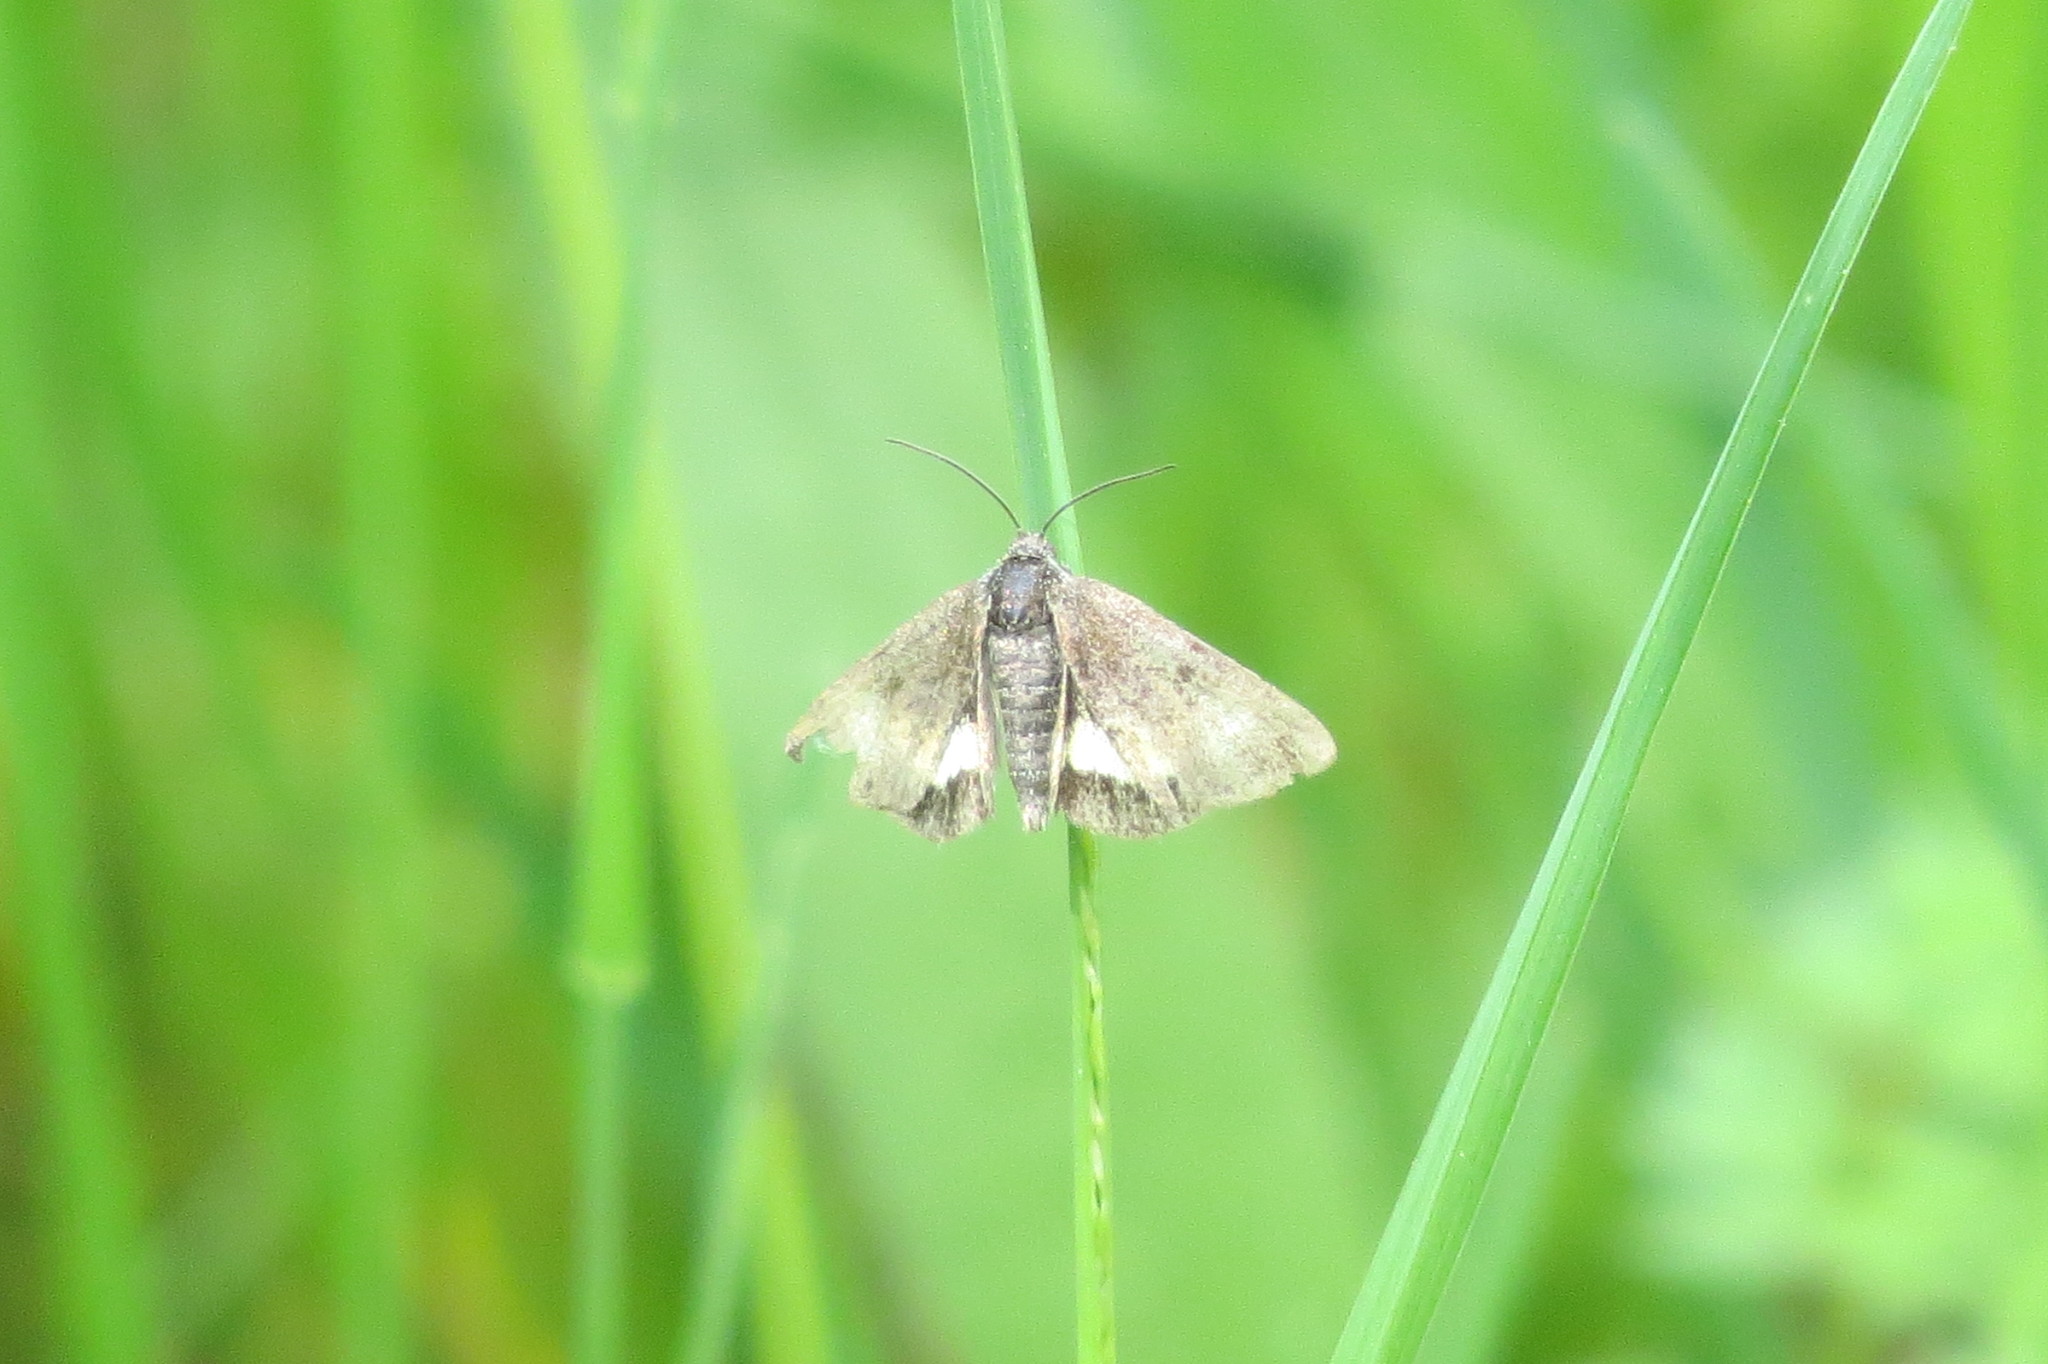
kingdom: Animalia
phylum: Arthropoda
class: Insecta
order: Lepidoptera
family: Noctuidae
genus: Panemeria
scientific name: Panemeria tenebrata
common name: Small yellow underwing
